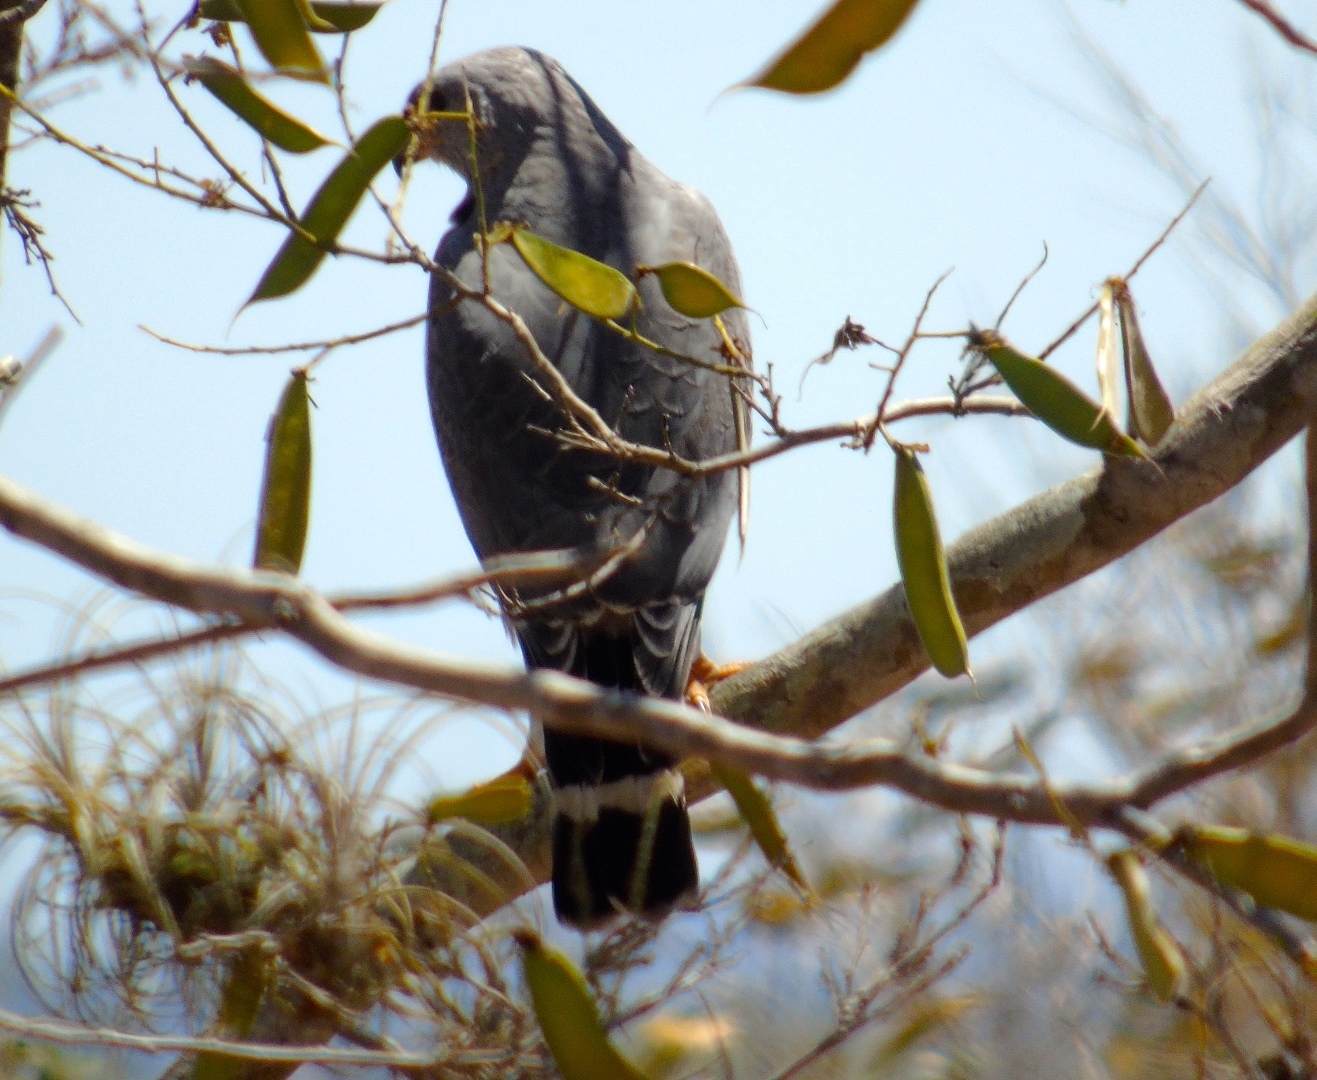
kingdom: Animalia
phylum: Chordata
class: Aves
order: Accipitriformes
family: Accipitridae
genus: Buteo
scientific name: Buteo nitidus
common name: Grey-lined hawk
